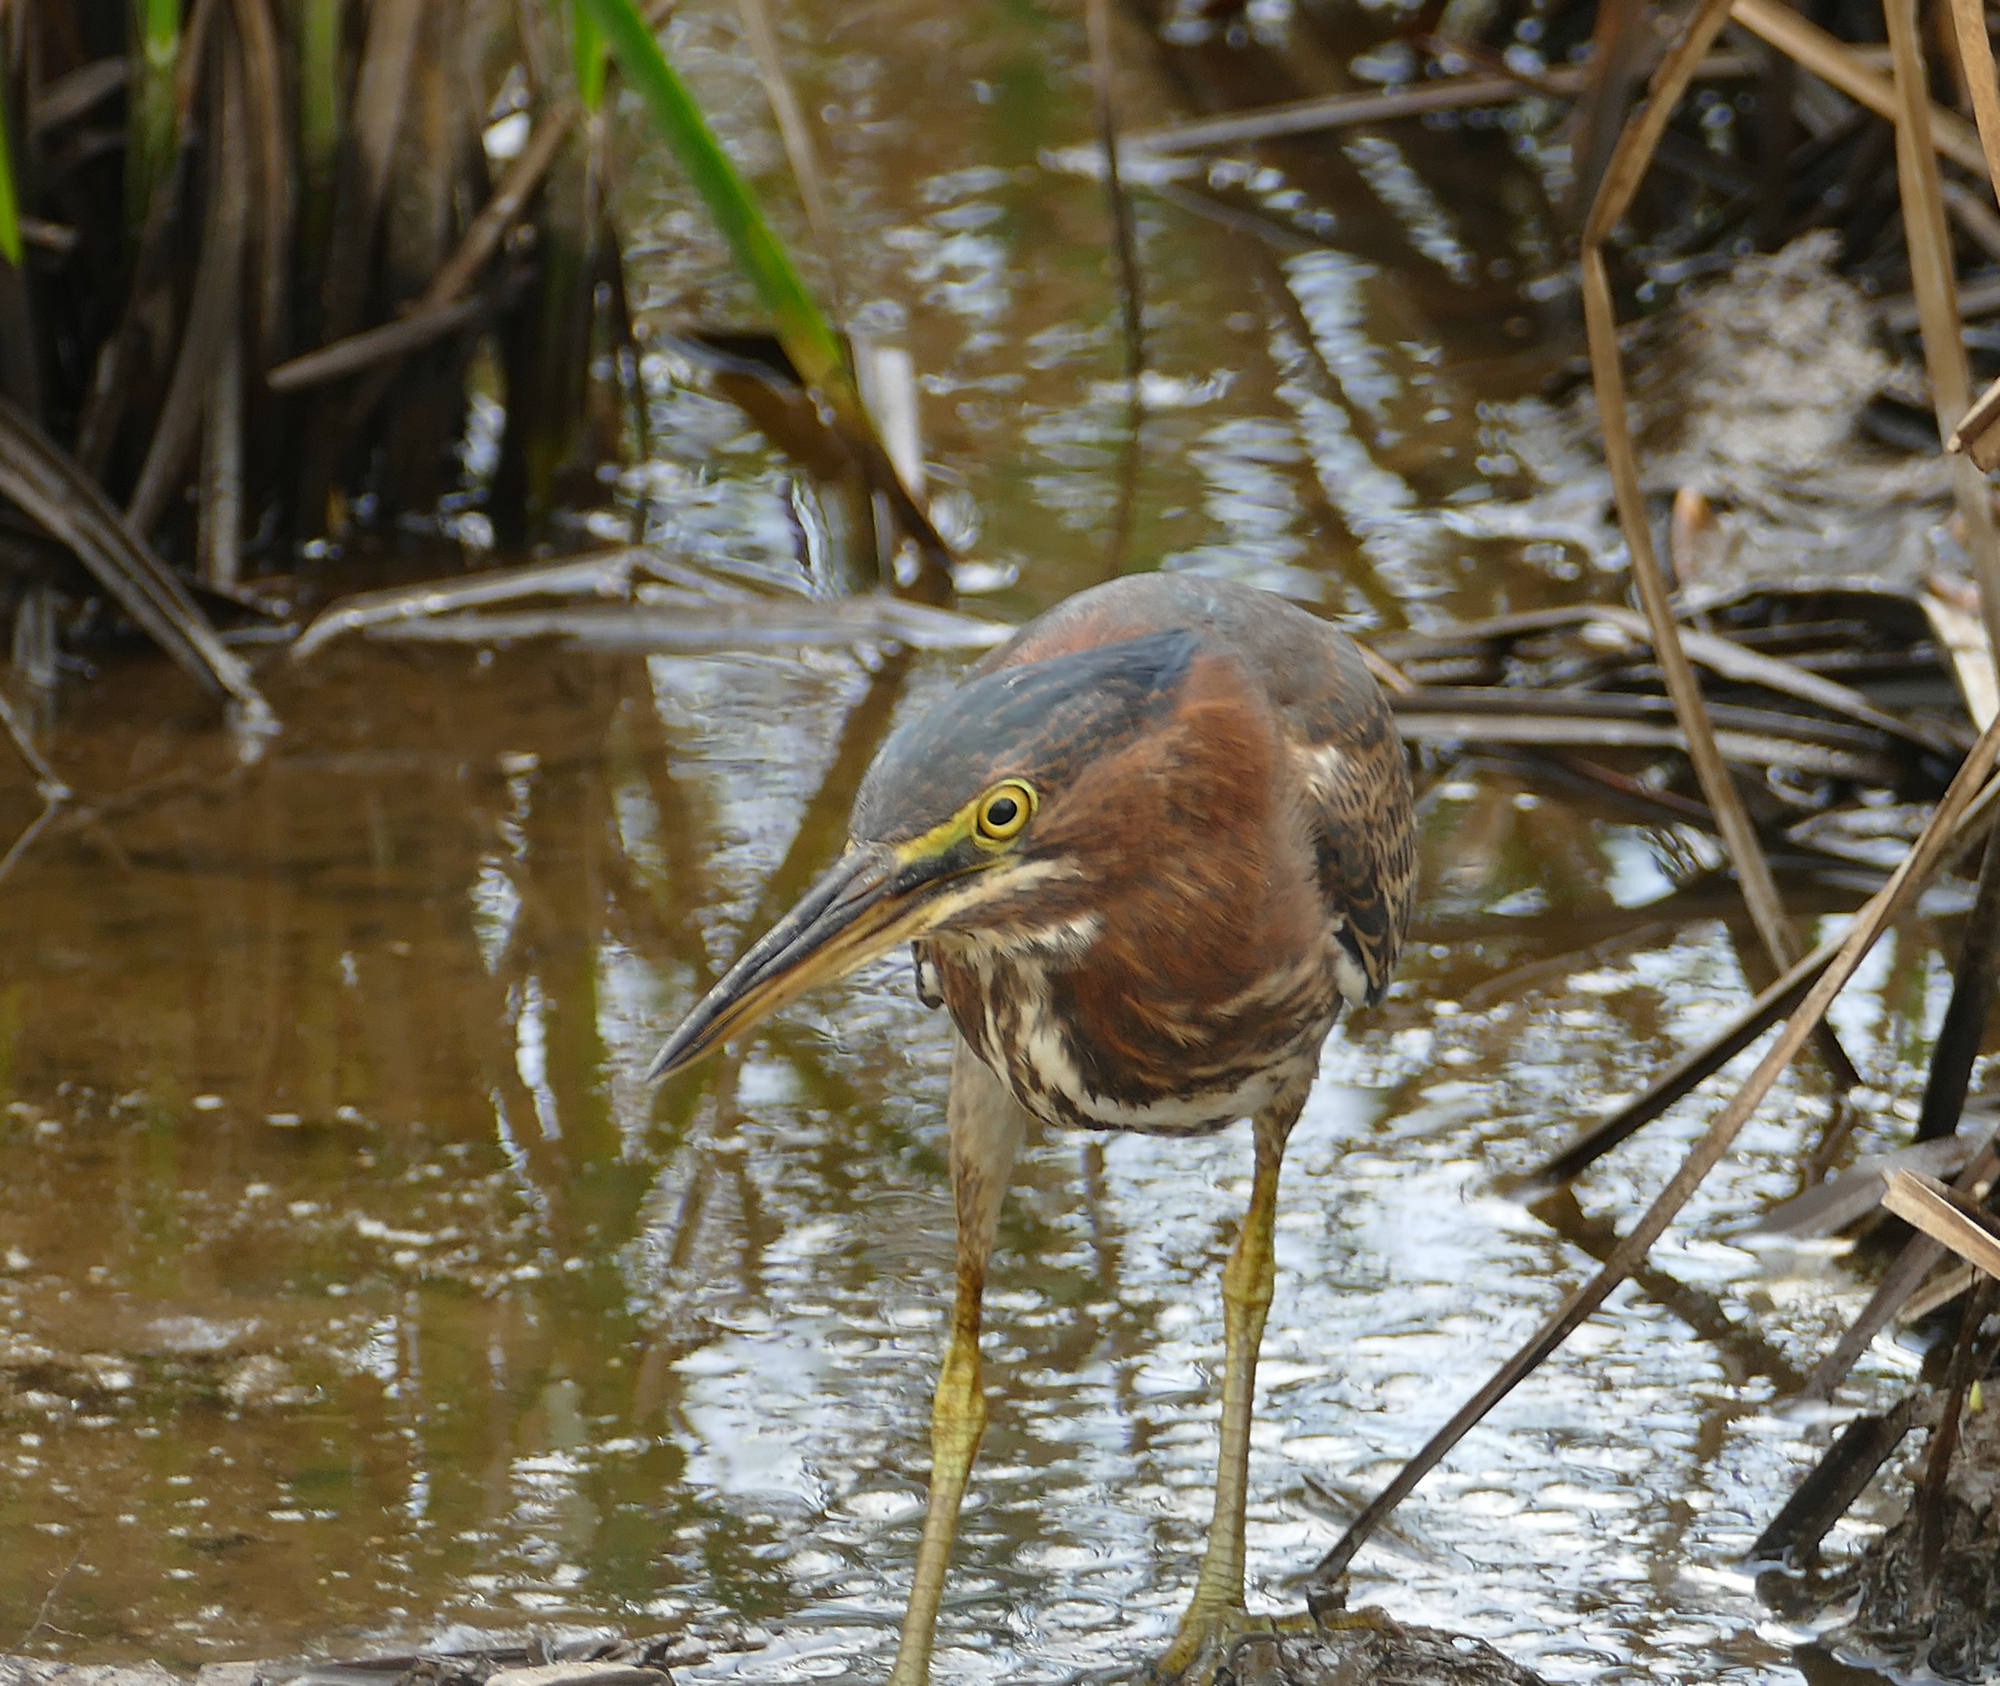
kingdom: Animalia
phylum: Chordata
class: Aves
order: Pelecaniformes
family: Ardeidae
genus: Butorides
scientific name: Butorides virescens
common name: Green heron
